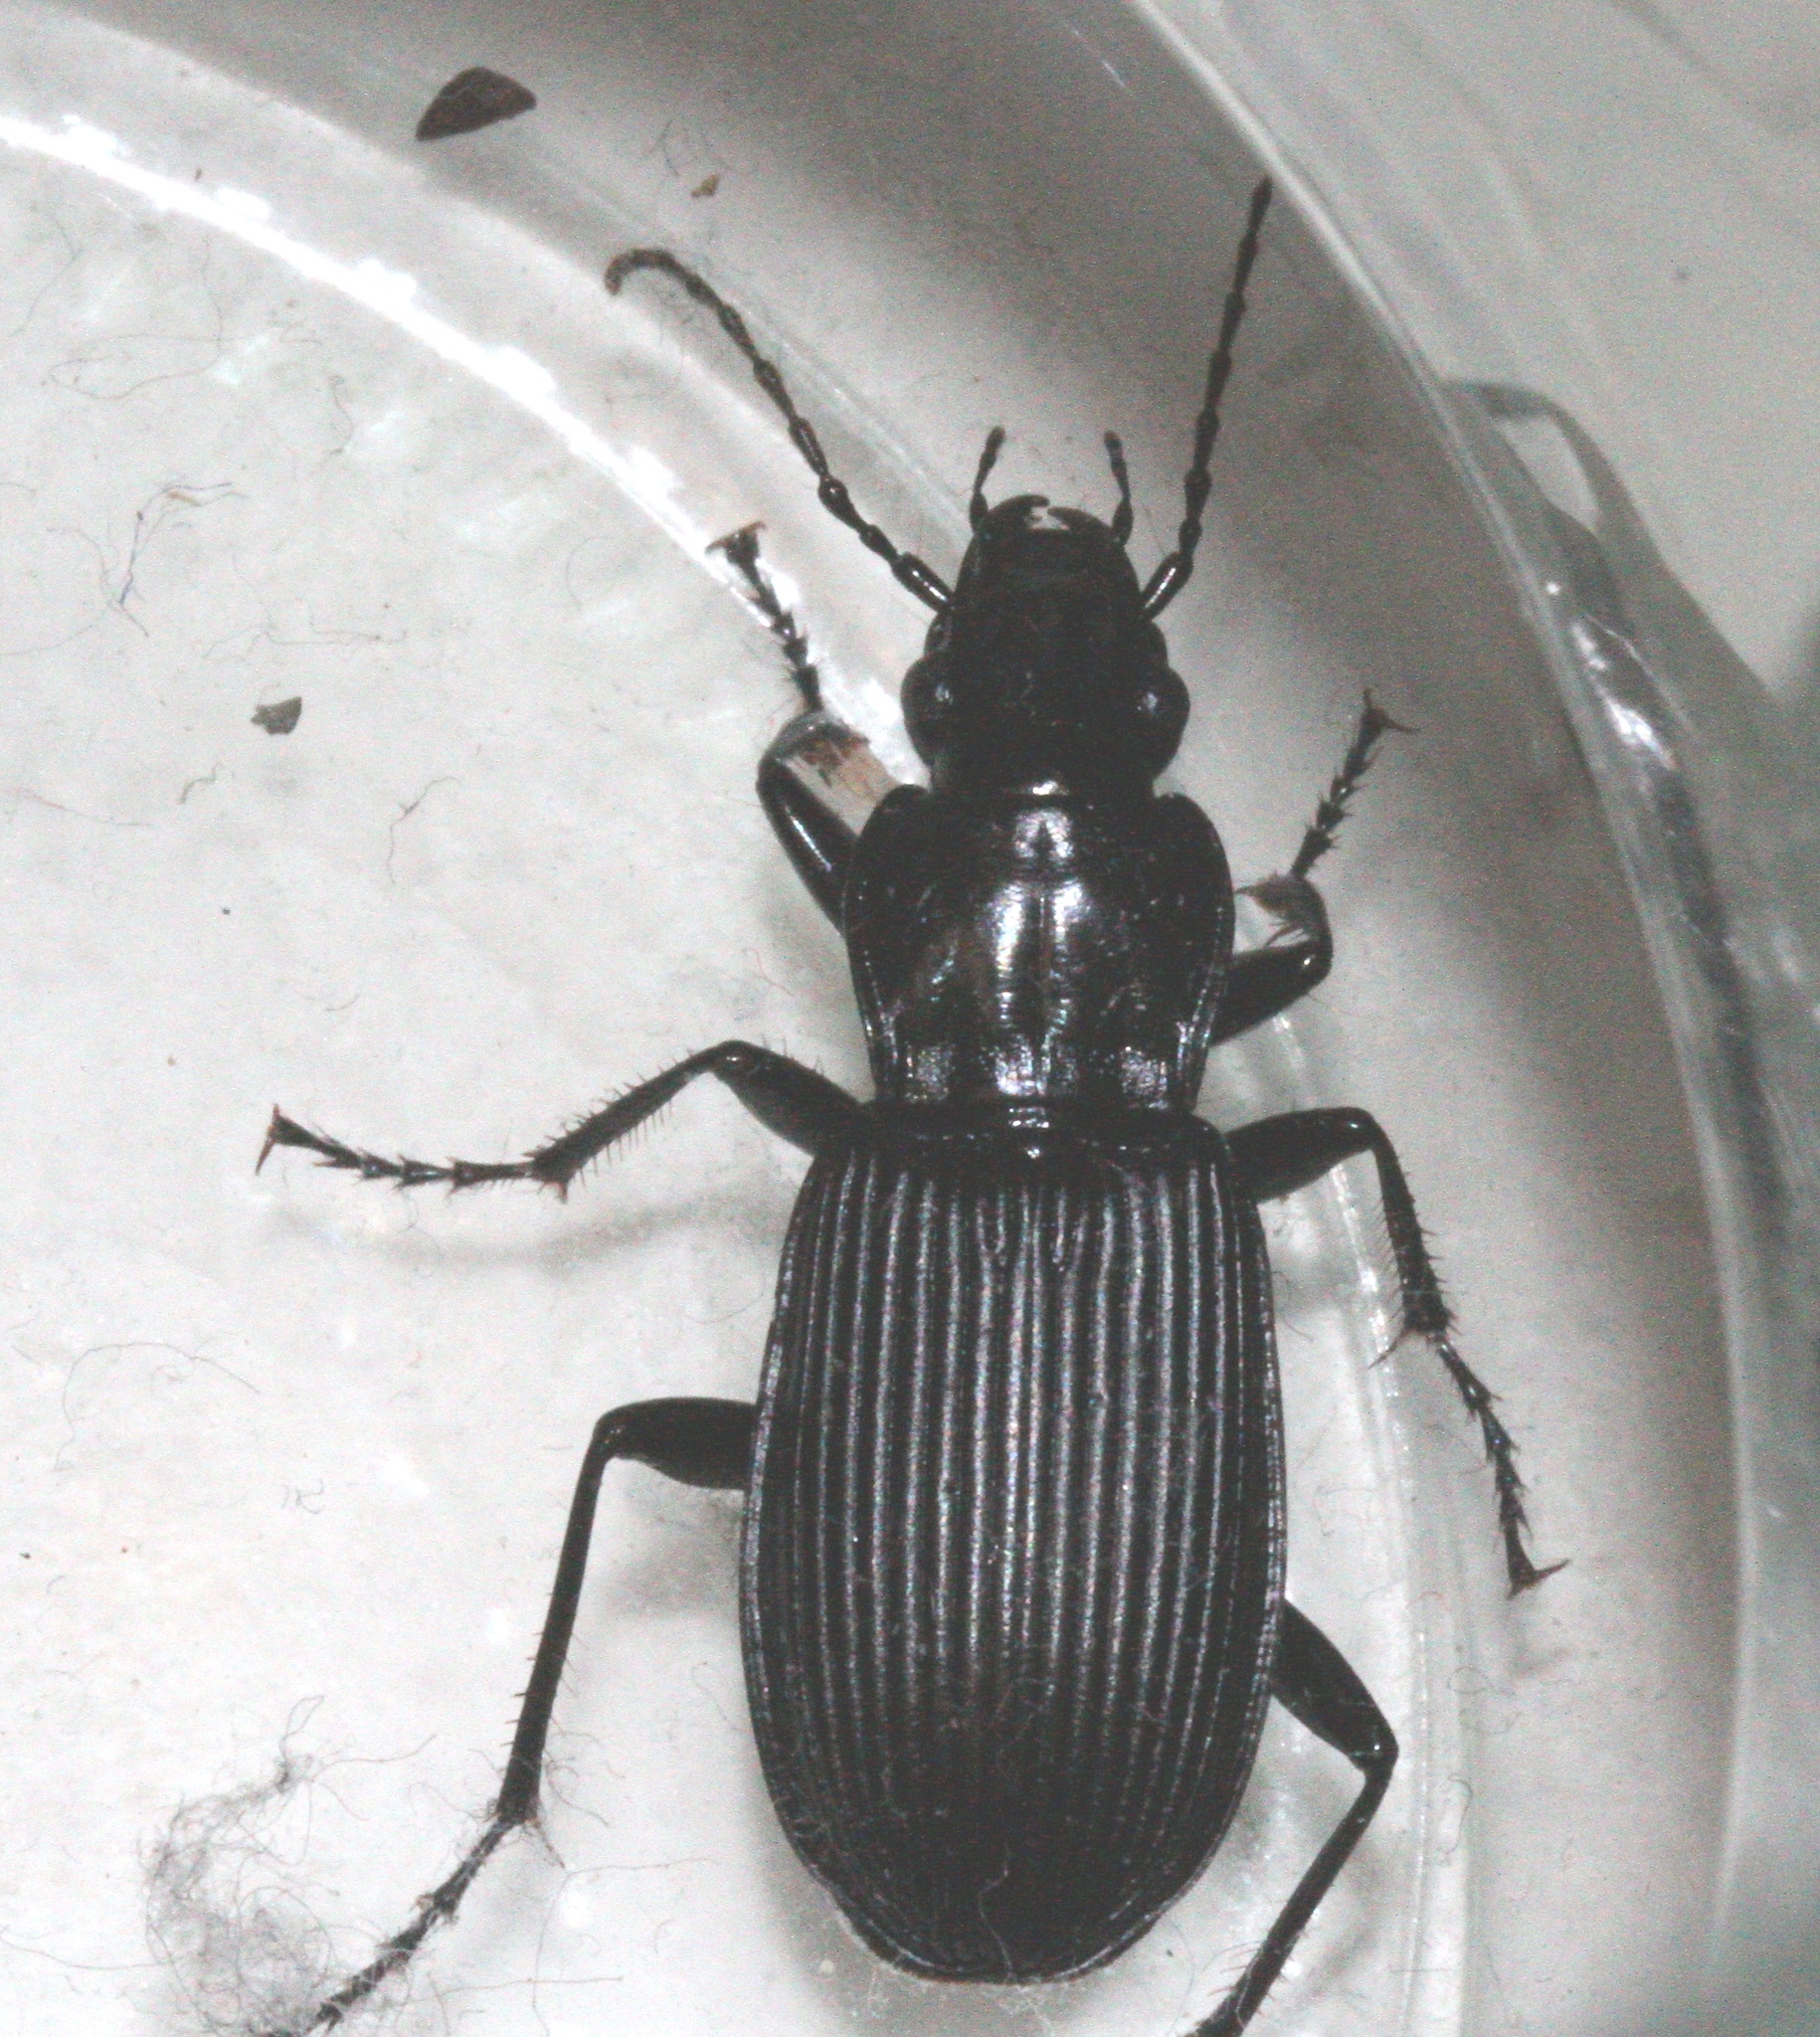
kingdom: Animalia
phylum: Arthropoda
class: Insecta
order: Coleoptera
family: Carabidae
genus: Pterostichus
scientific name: Pterostichus niger
